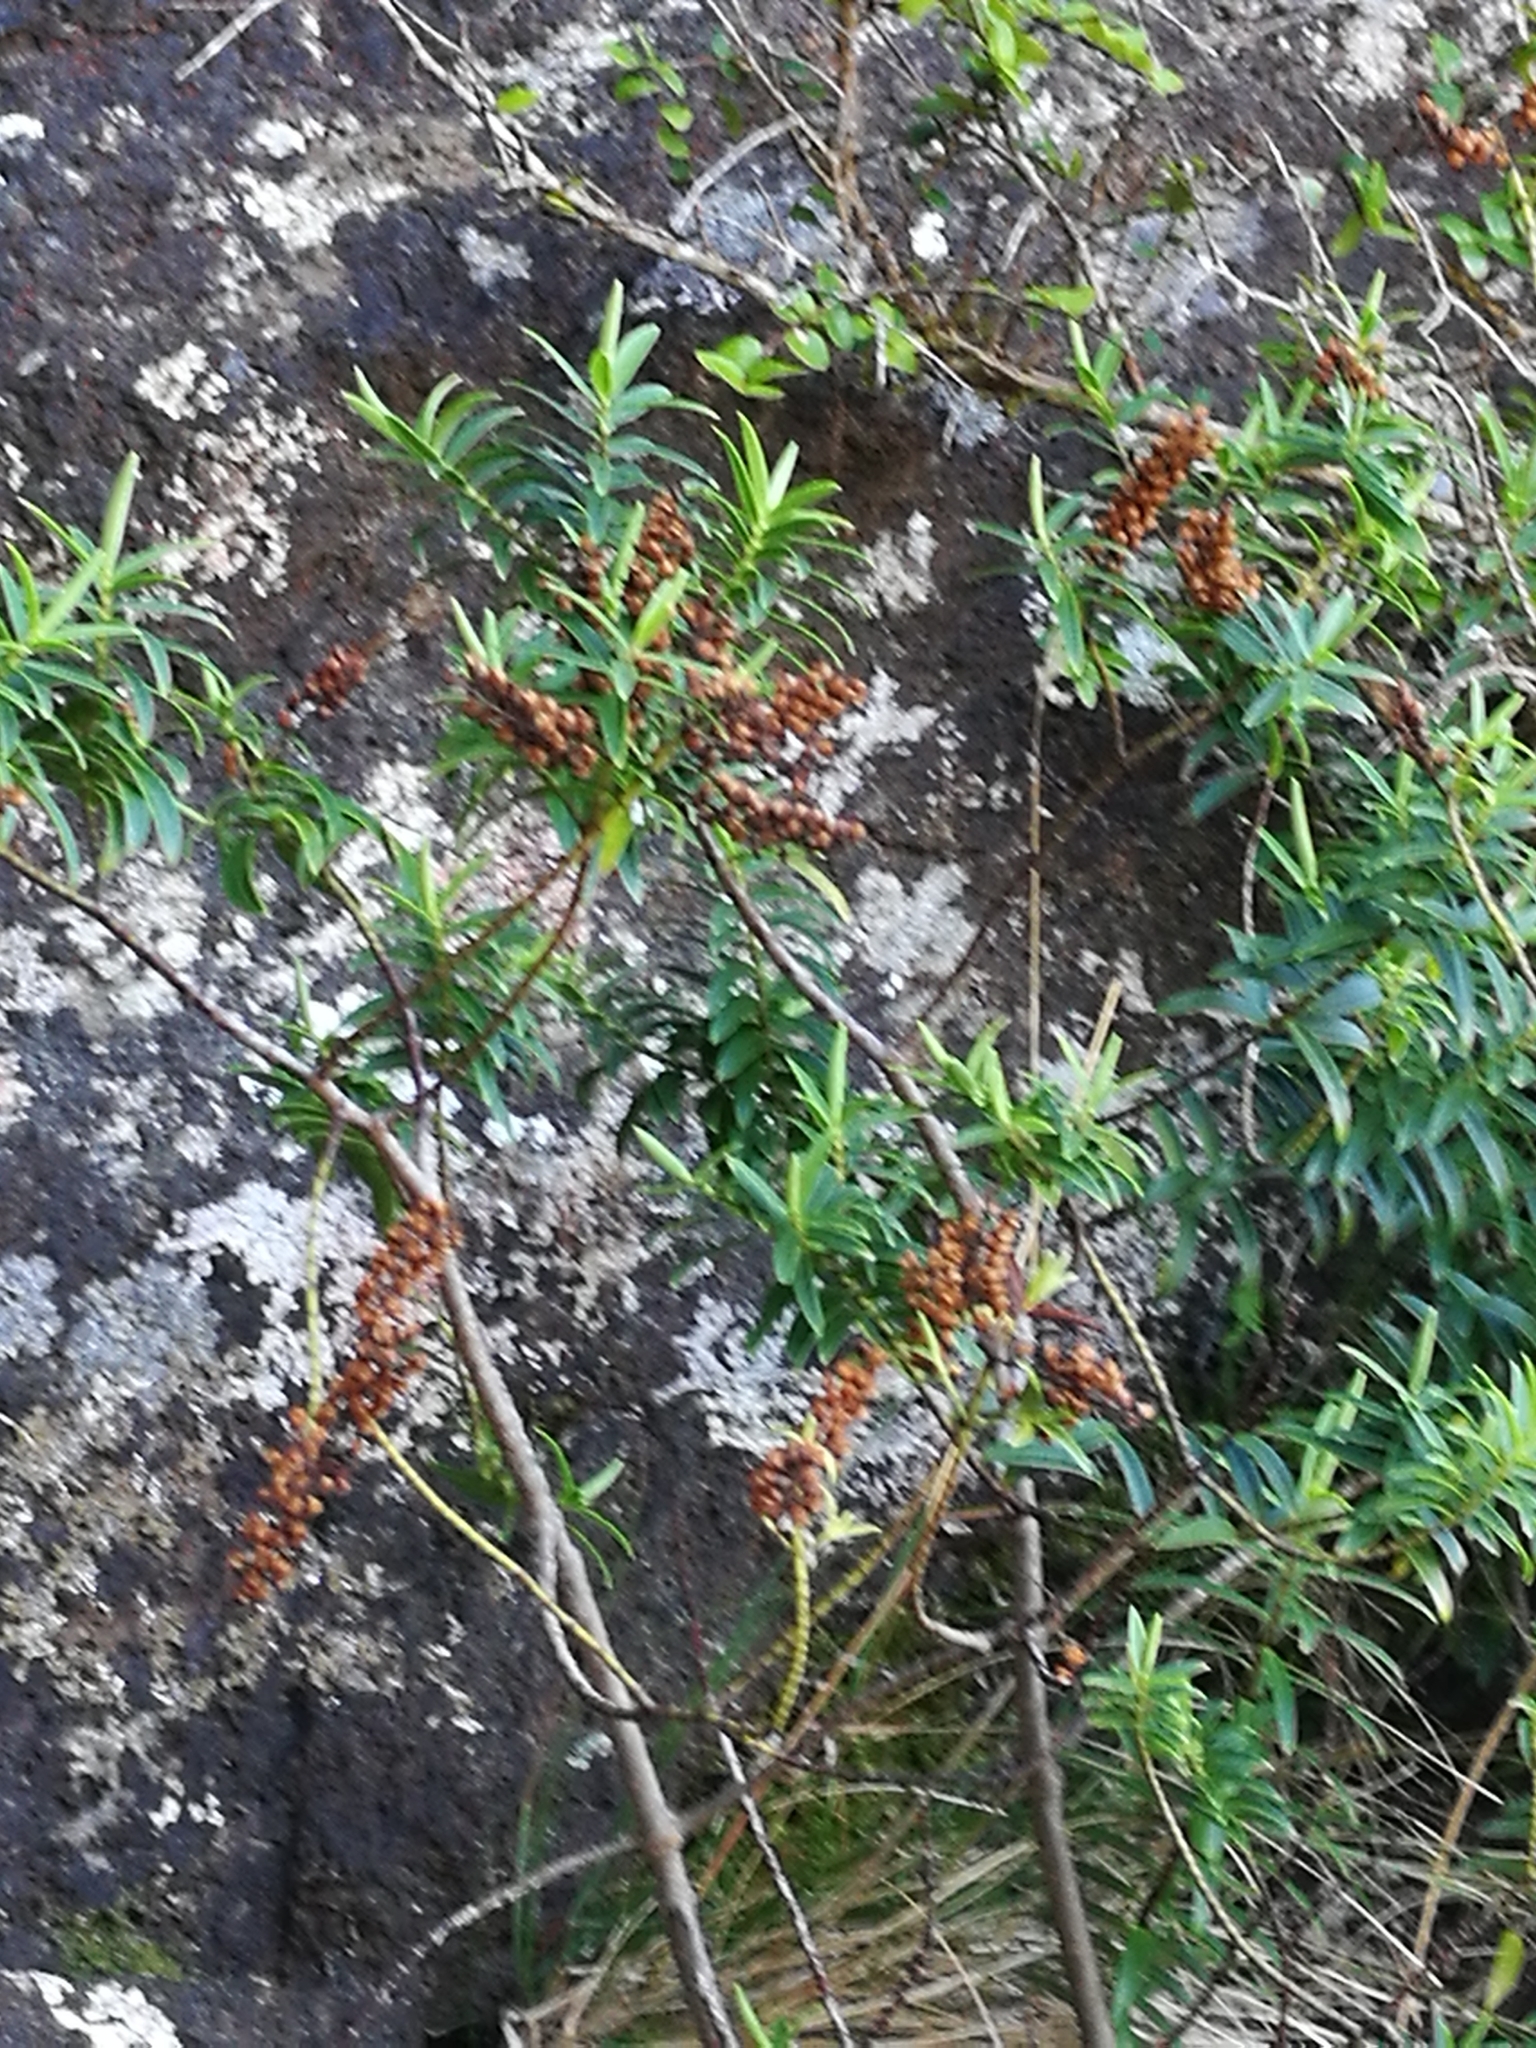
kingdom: Plantae
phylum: Tracheophyta
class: Magnoliopsida
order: Lamiales
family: Plantaginaceae
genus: Veronica
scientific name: Veronica strictissima
